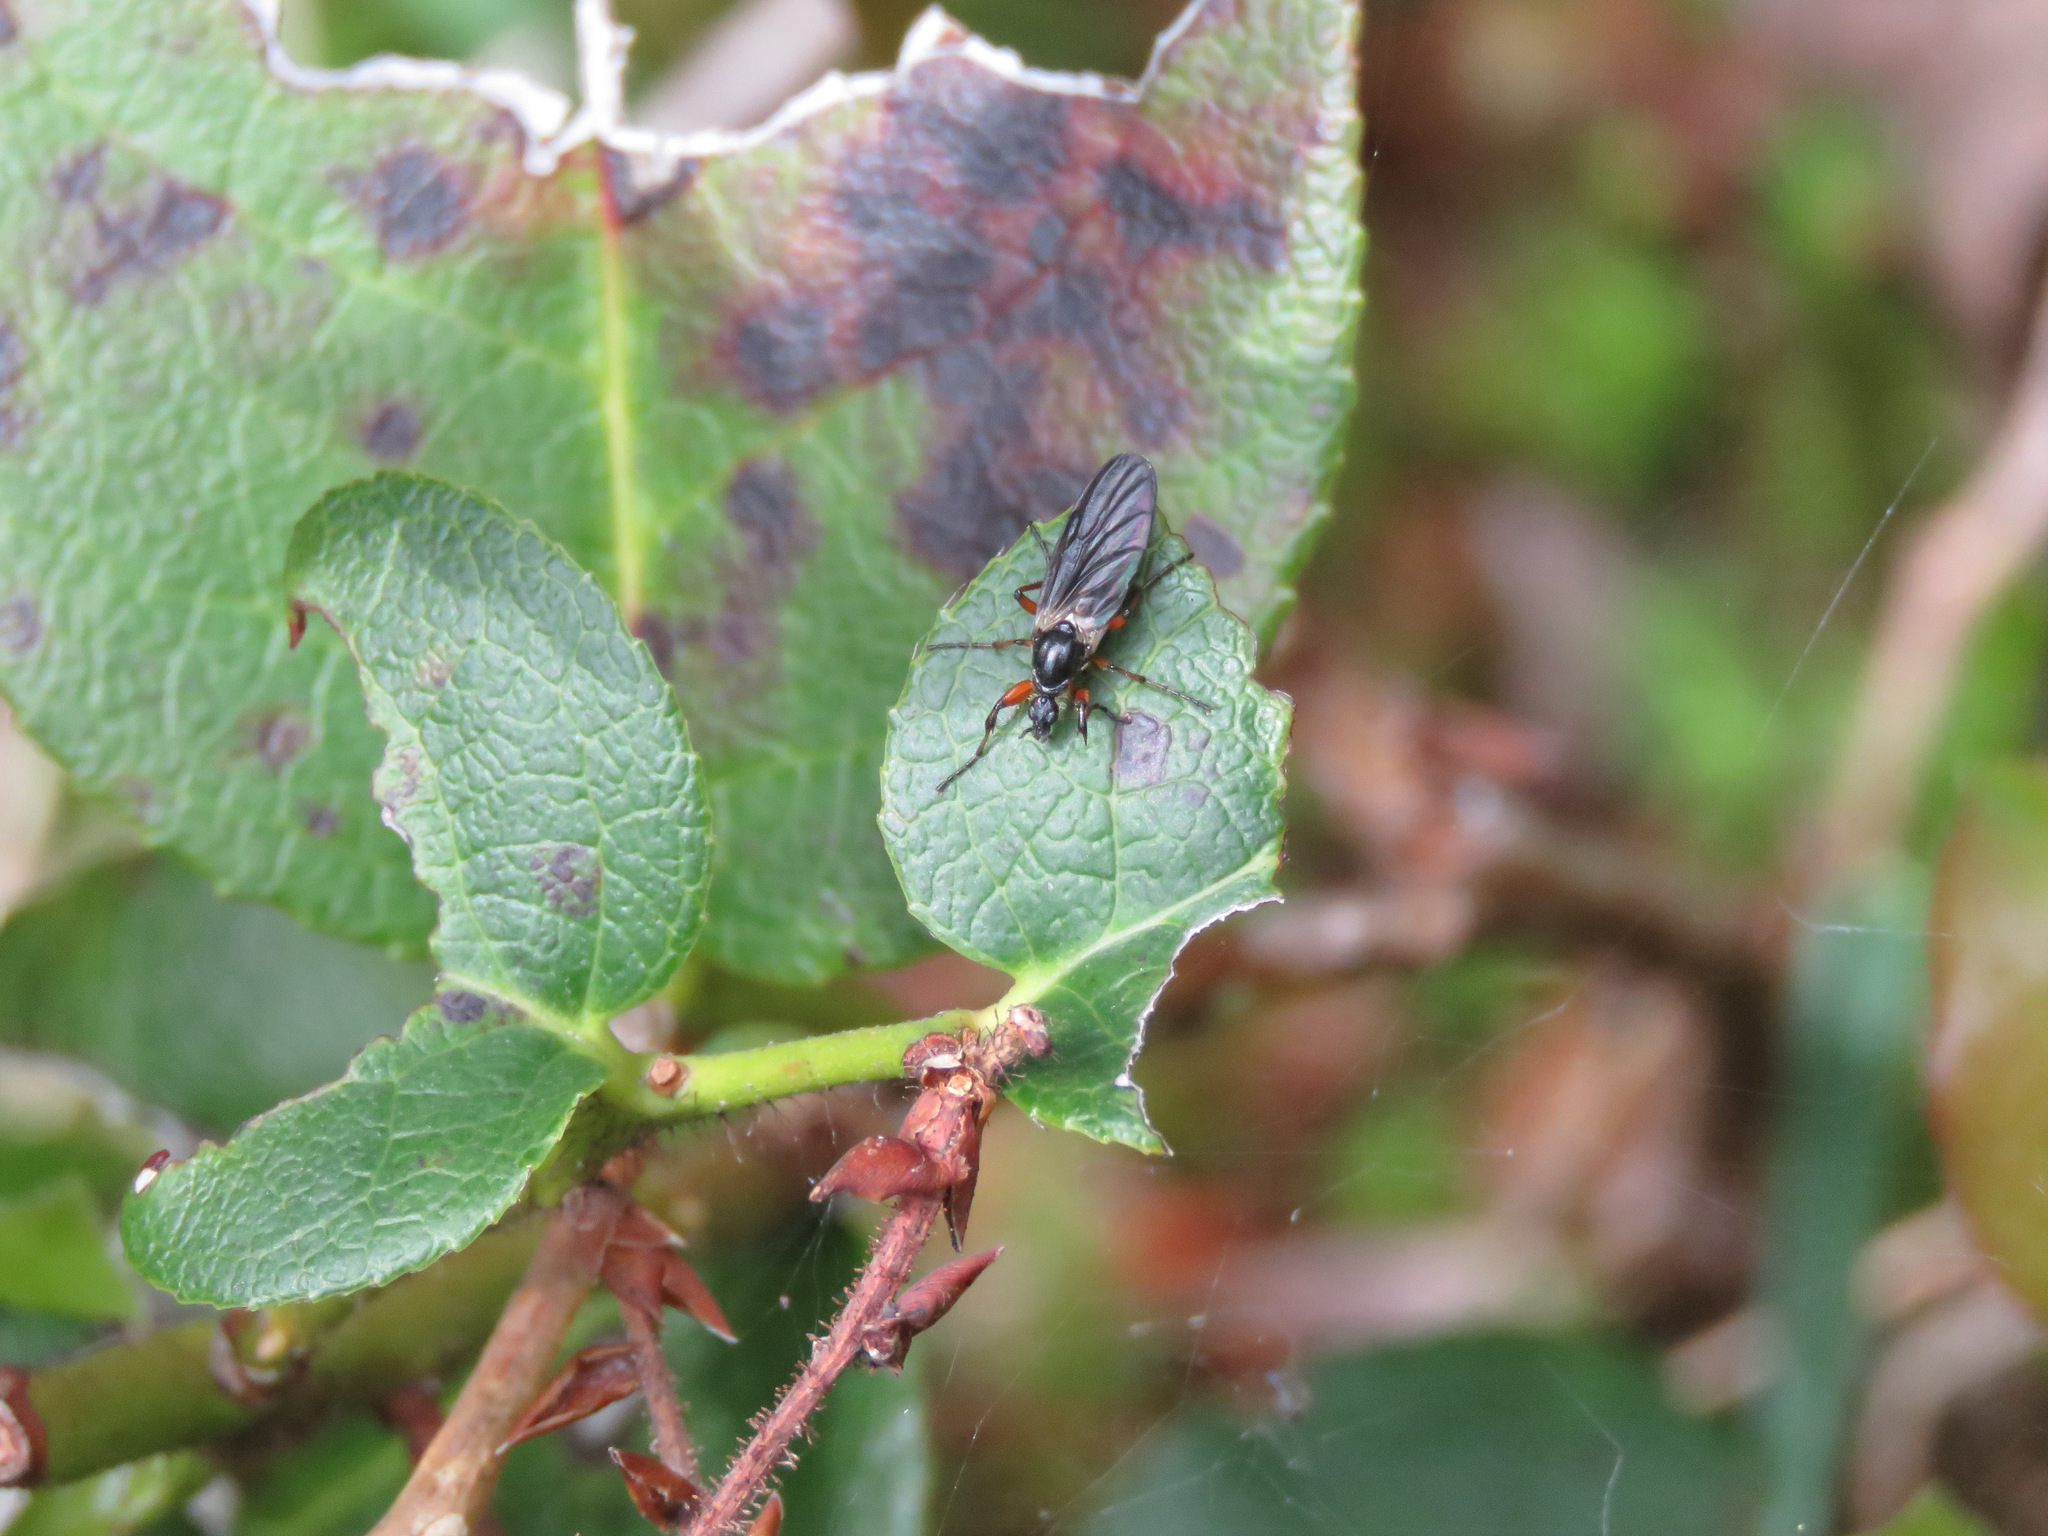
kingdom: Animalia
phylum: Arthropoda
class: Insecta
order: Diptera
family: Bibionidae
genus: Bibio
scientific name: Bibio
